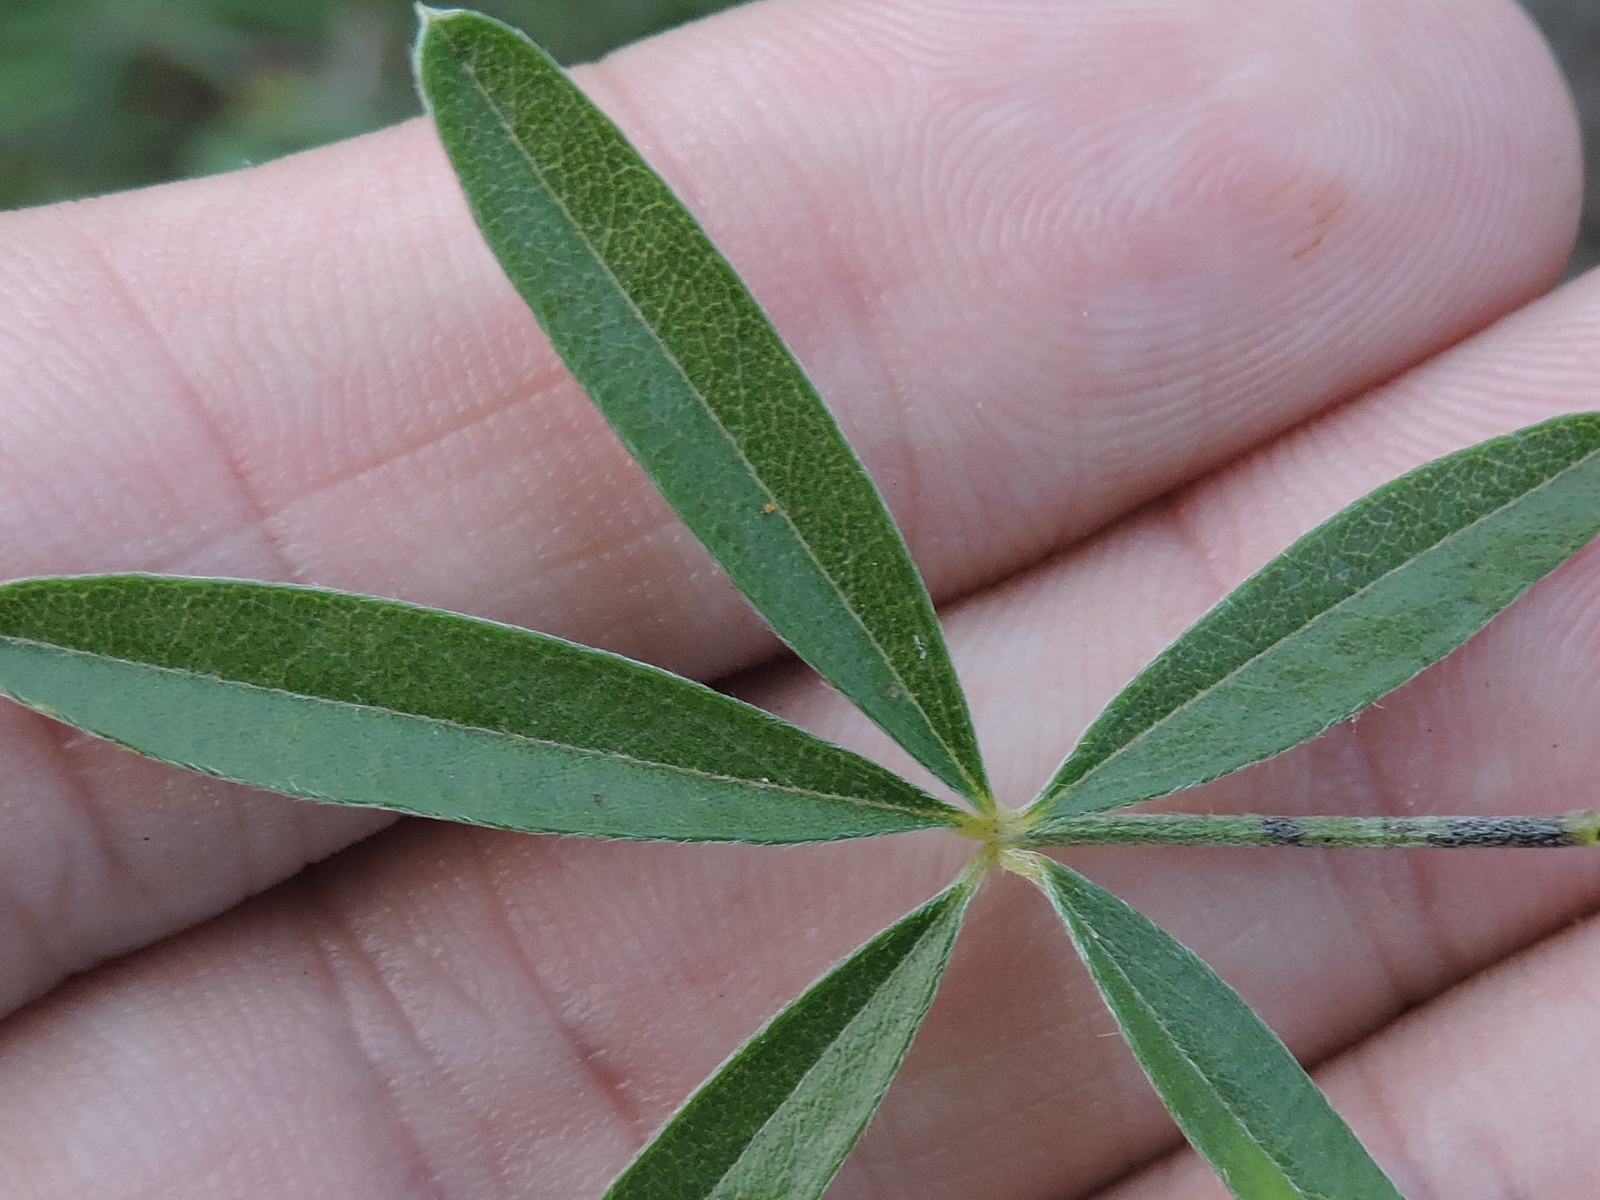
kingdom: Plantae
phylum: Tracheophyta
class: Magnoliopsida
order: Fabales
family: Fabaceae
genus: Pediomelum
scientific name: Pediomelum digitatum
